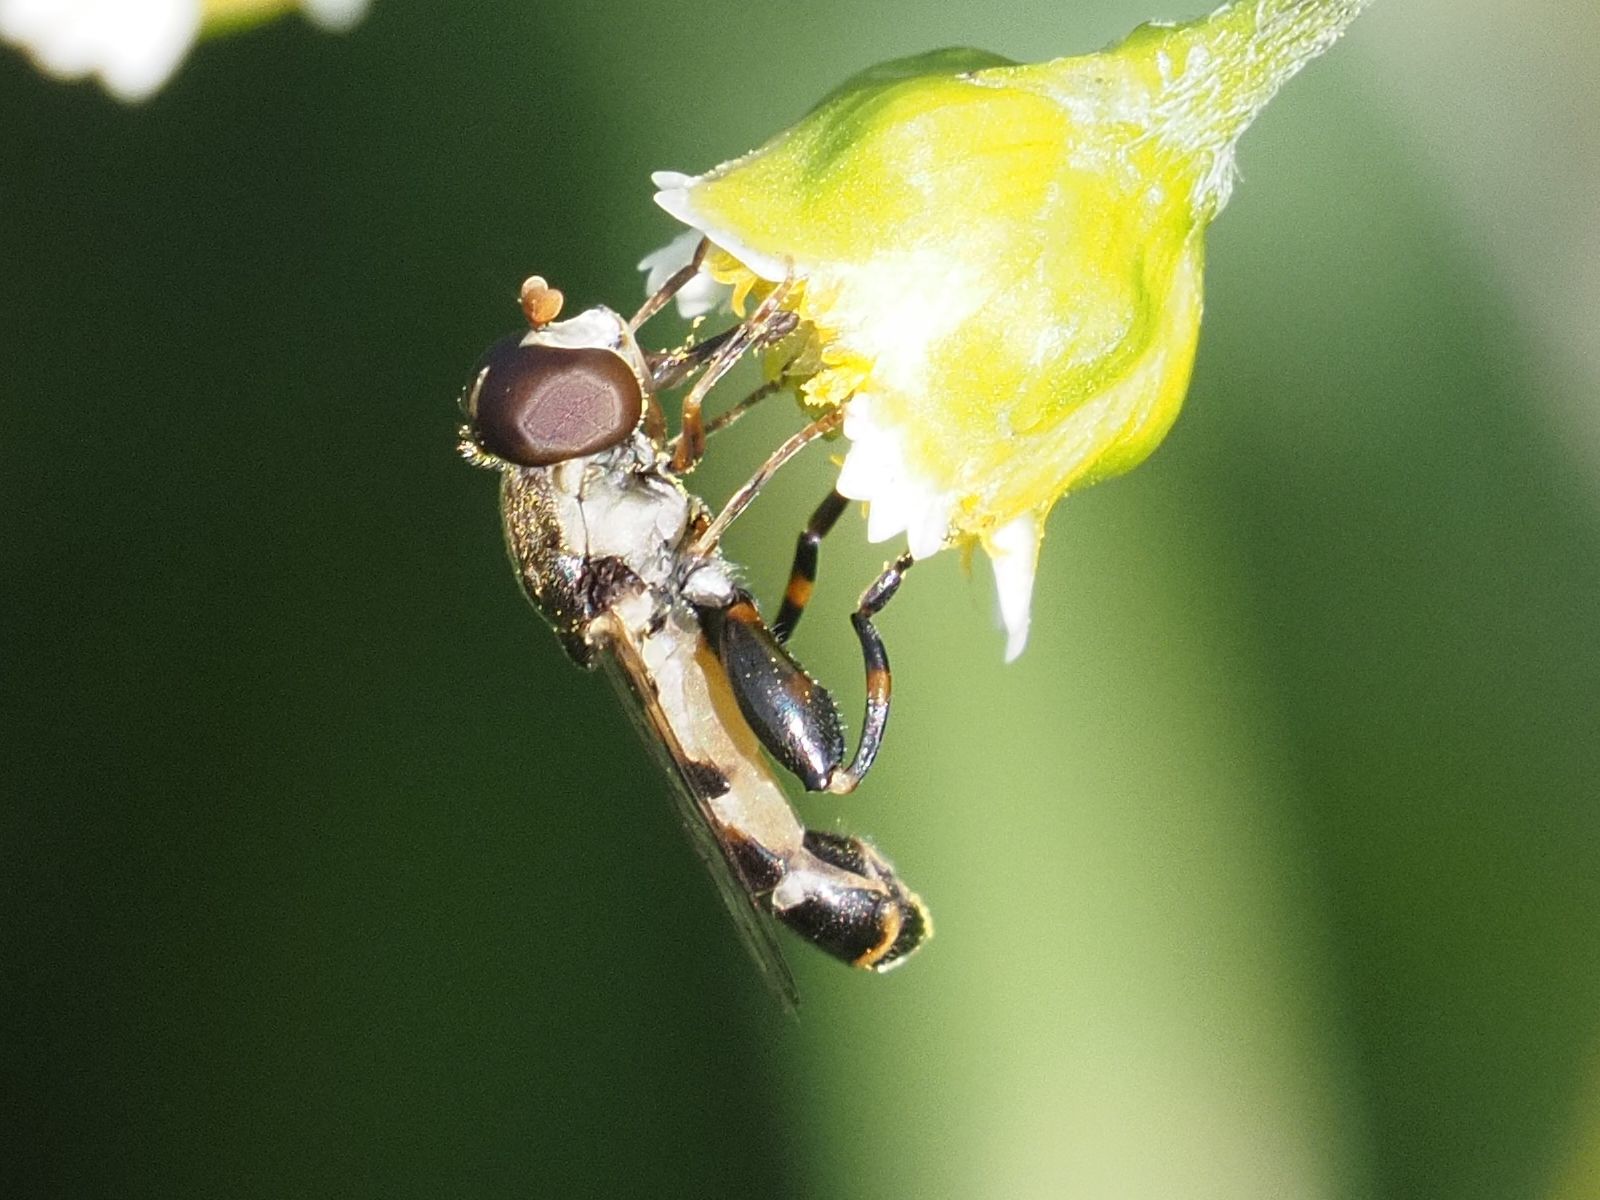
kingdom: Animalia
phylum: Arthropoda
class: Insecta
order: Diptera
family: Syrphidae
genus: Syritta
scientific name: Syritta pipiens
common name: Hover fly
